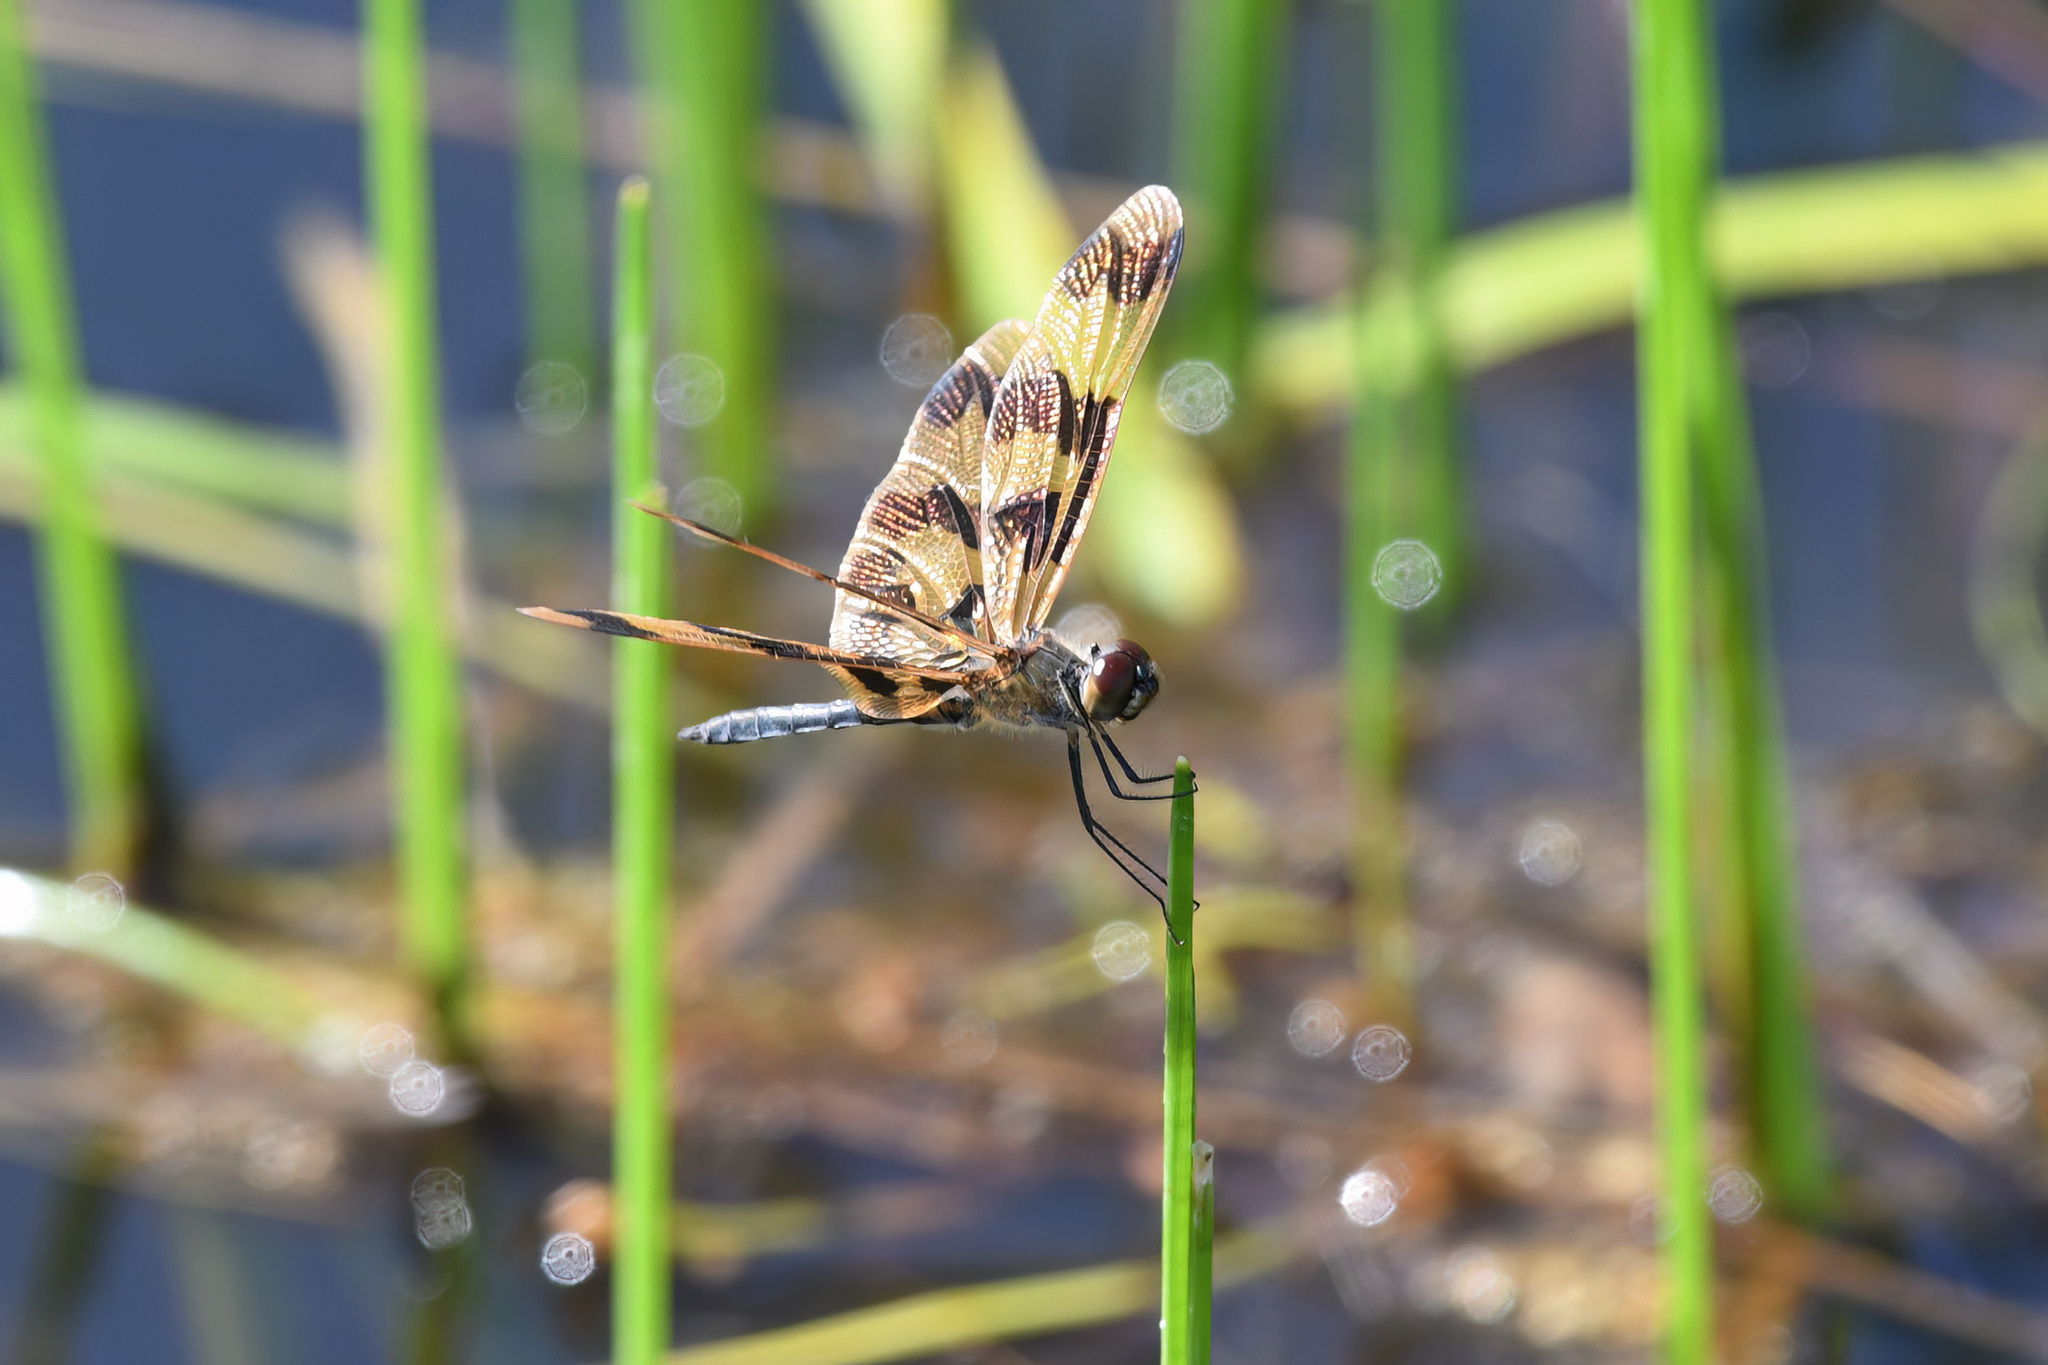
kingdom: Animalia
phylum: Arthropoda
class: Insecta
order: Odonata
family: Libellulidae
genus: Rhyothemis
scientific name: Rhyothemis graphiptera
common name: Graphic flutterer
